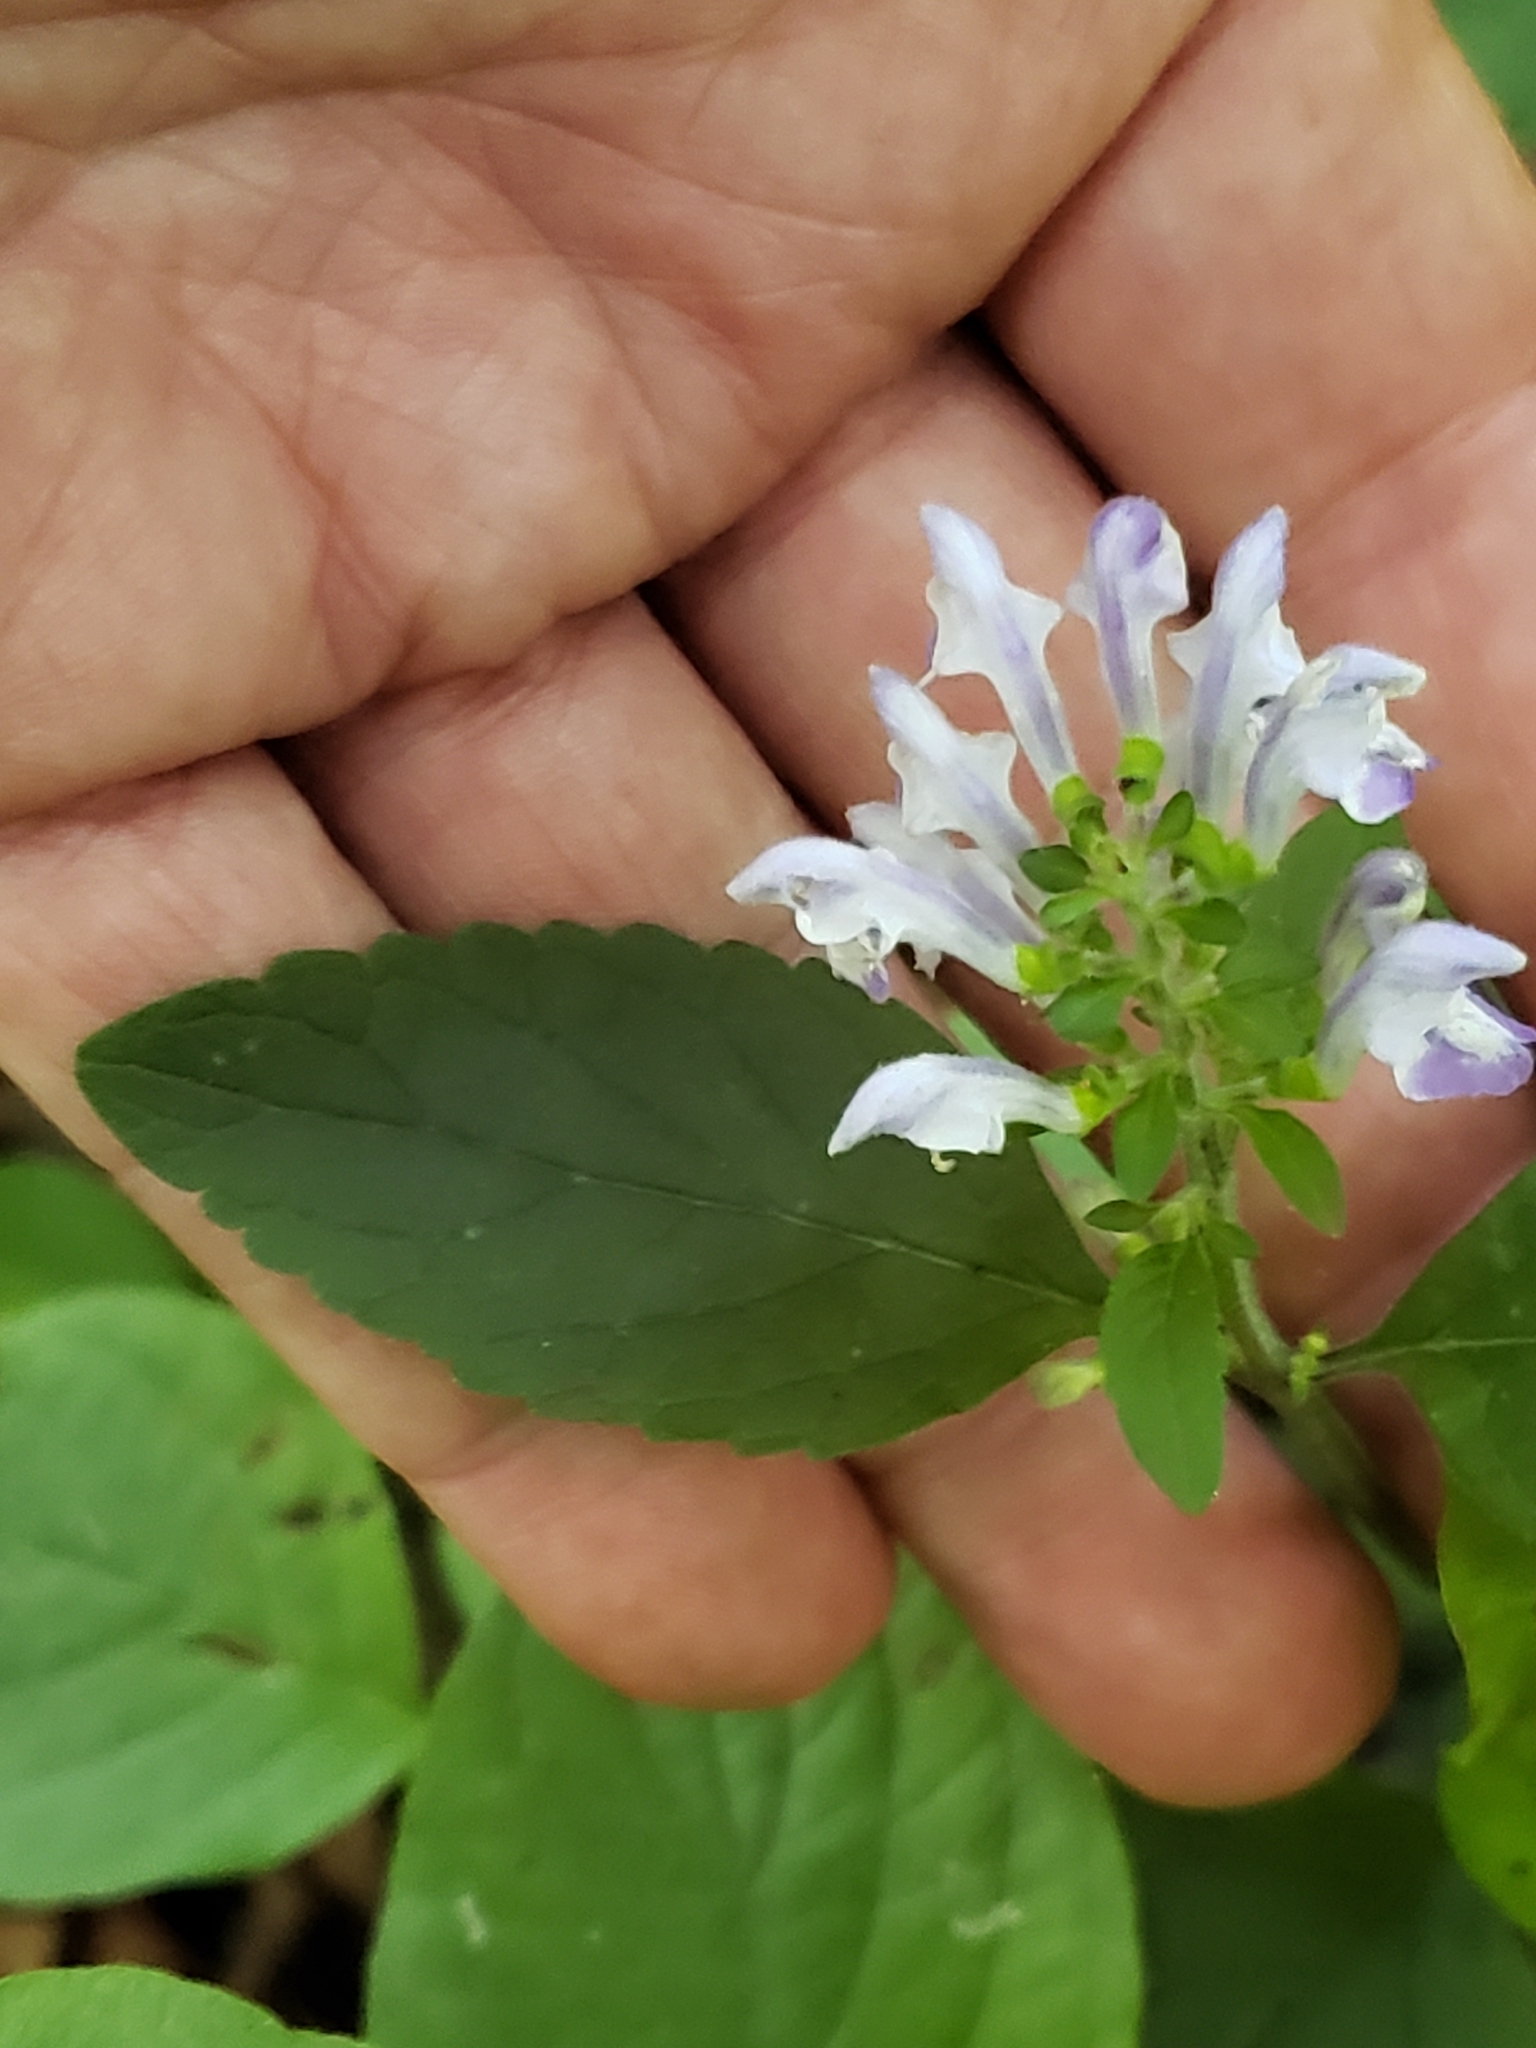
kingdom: Plantae
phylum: Tracheophyta
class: Magnoliopsida
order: Lamiales
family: Lamiaceae
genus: Scutellaria
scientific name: Scutellaria elliptica
